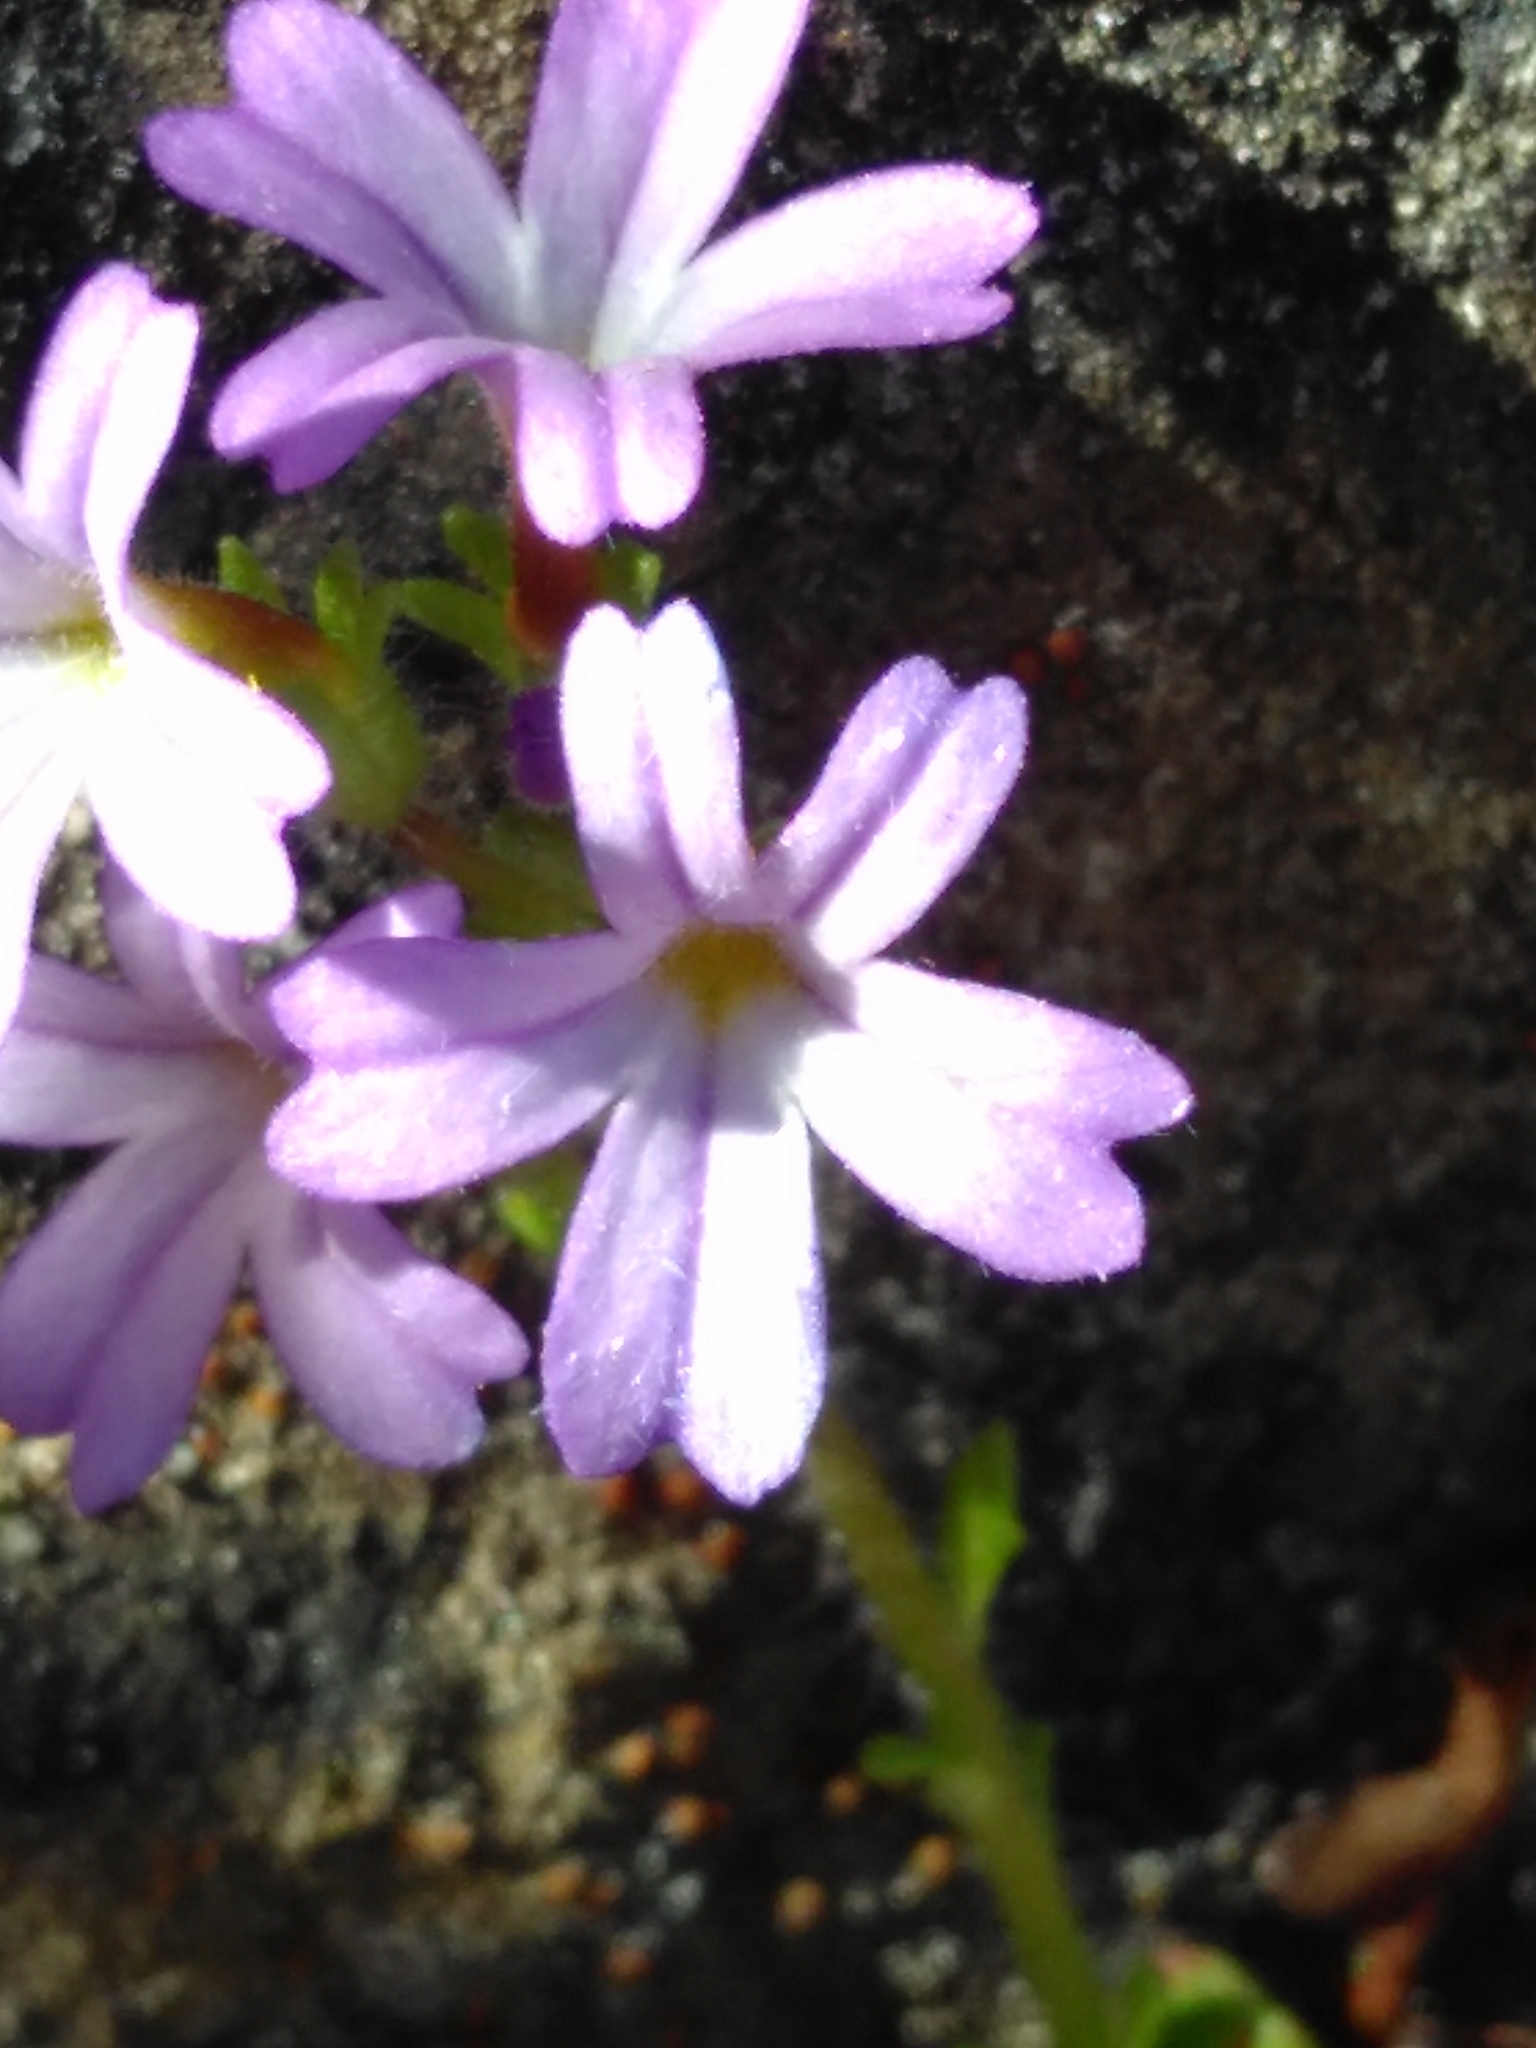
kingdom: Plantae
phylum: Tracheophyta
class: Magnoliopsida
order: Lamiales
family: Plantaginaceae
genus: Erinus
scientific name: Erinus alpinus
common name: Fairy foxglove
